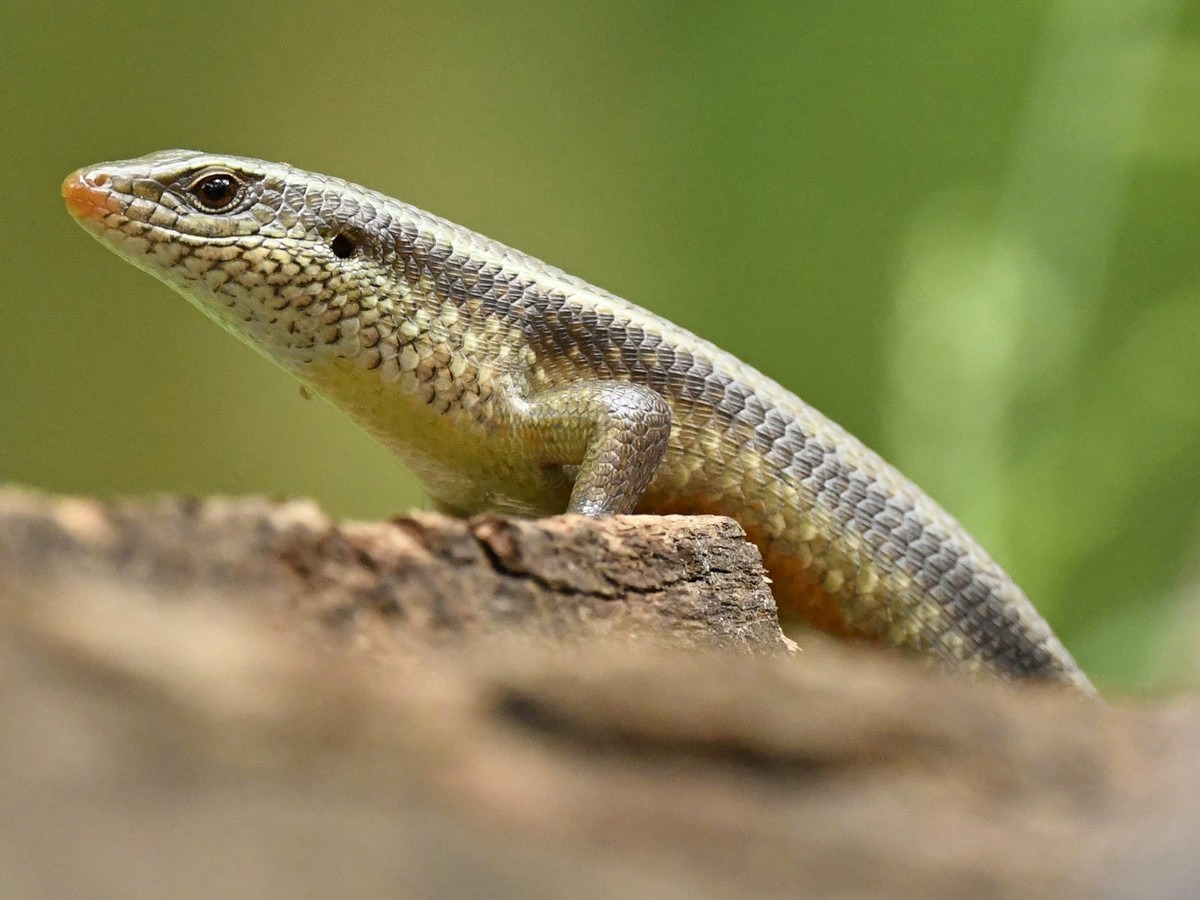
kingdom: Animalia
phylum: Chordata
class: Squamata
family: Scincidae
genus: Eutropis
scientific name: Eutropis carinata
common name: Keeled indian mabuya
